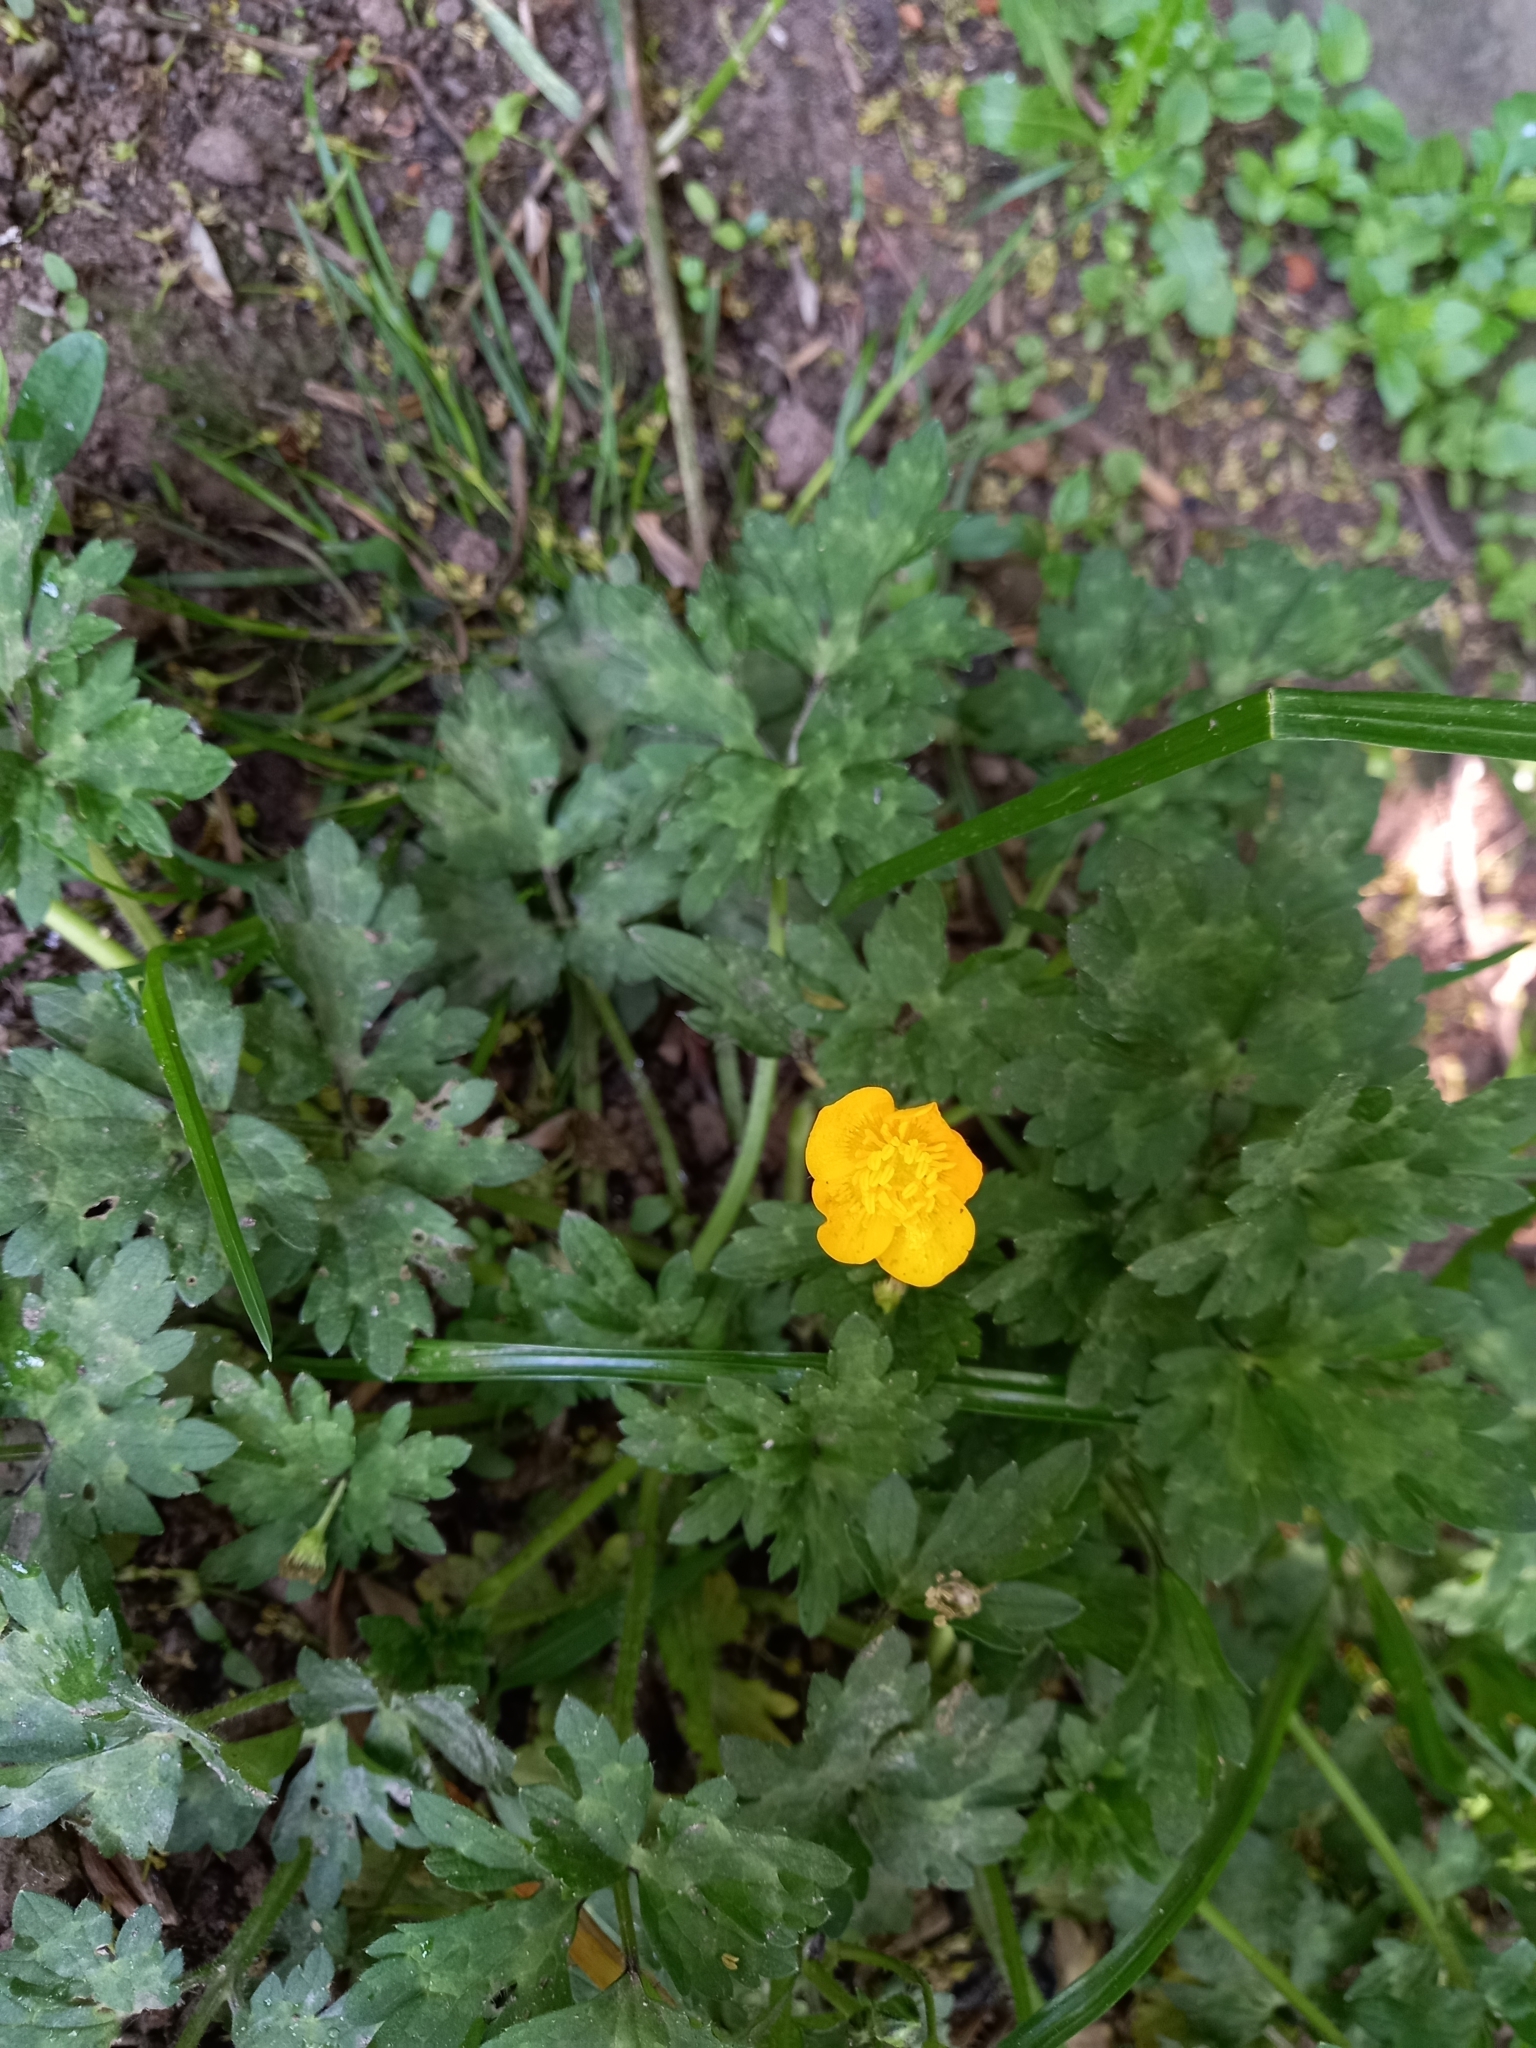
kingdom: Plantae
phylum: Tracheophyta
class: Magnoliopsida
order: Ranunculales
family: Ranunculaceae
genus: Ranunculus
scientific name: Ranunculus repens
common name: Creeping buttercup
